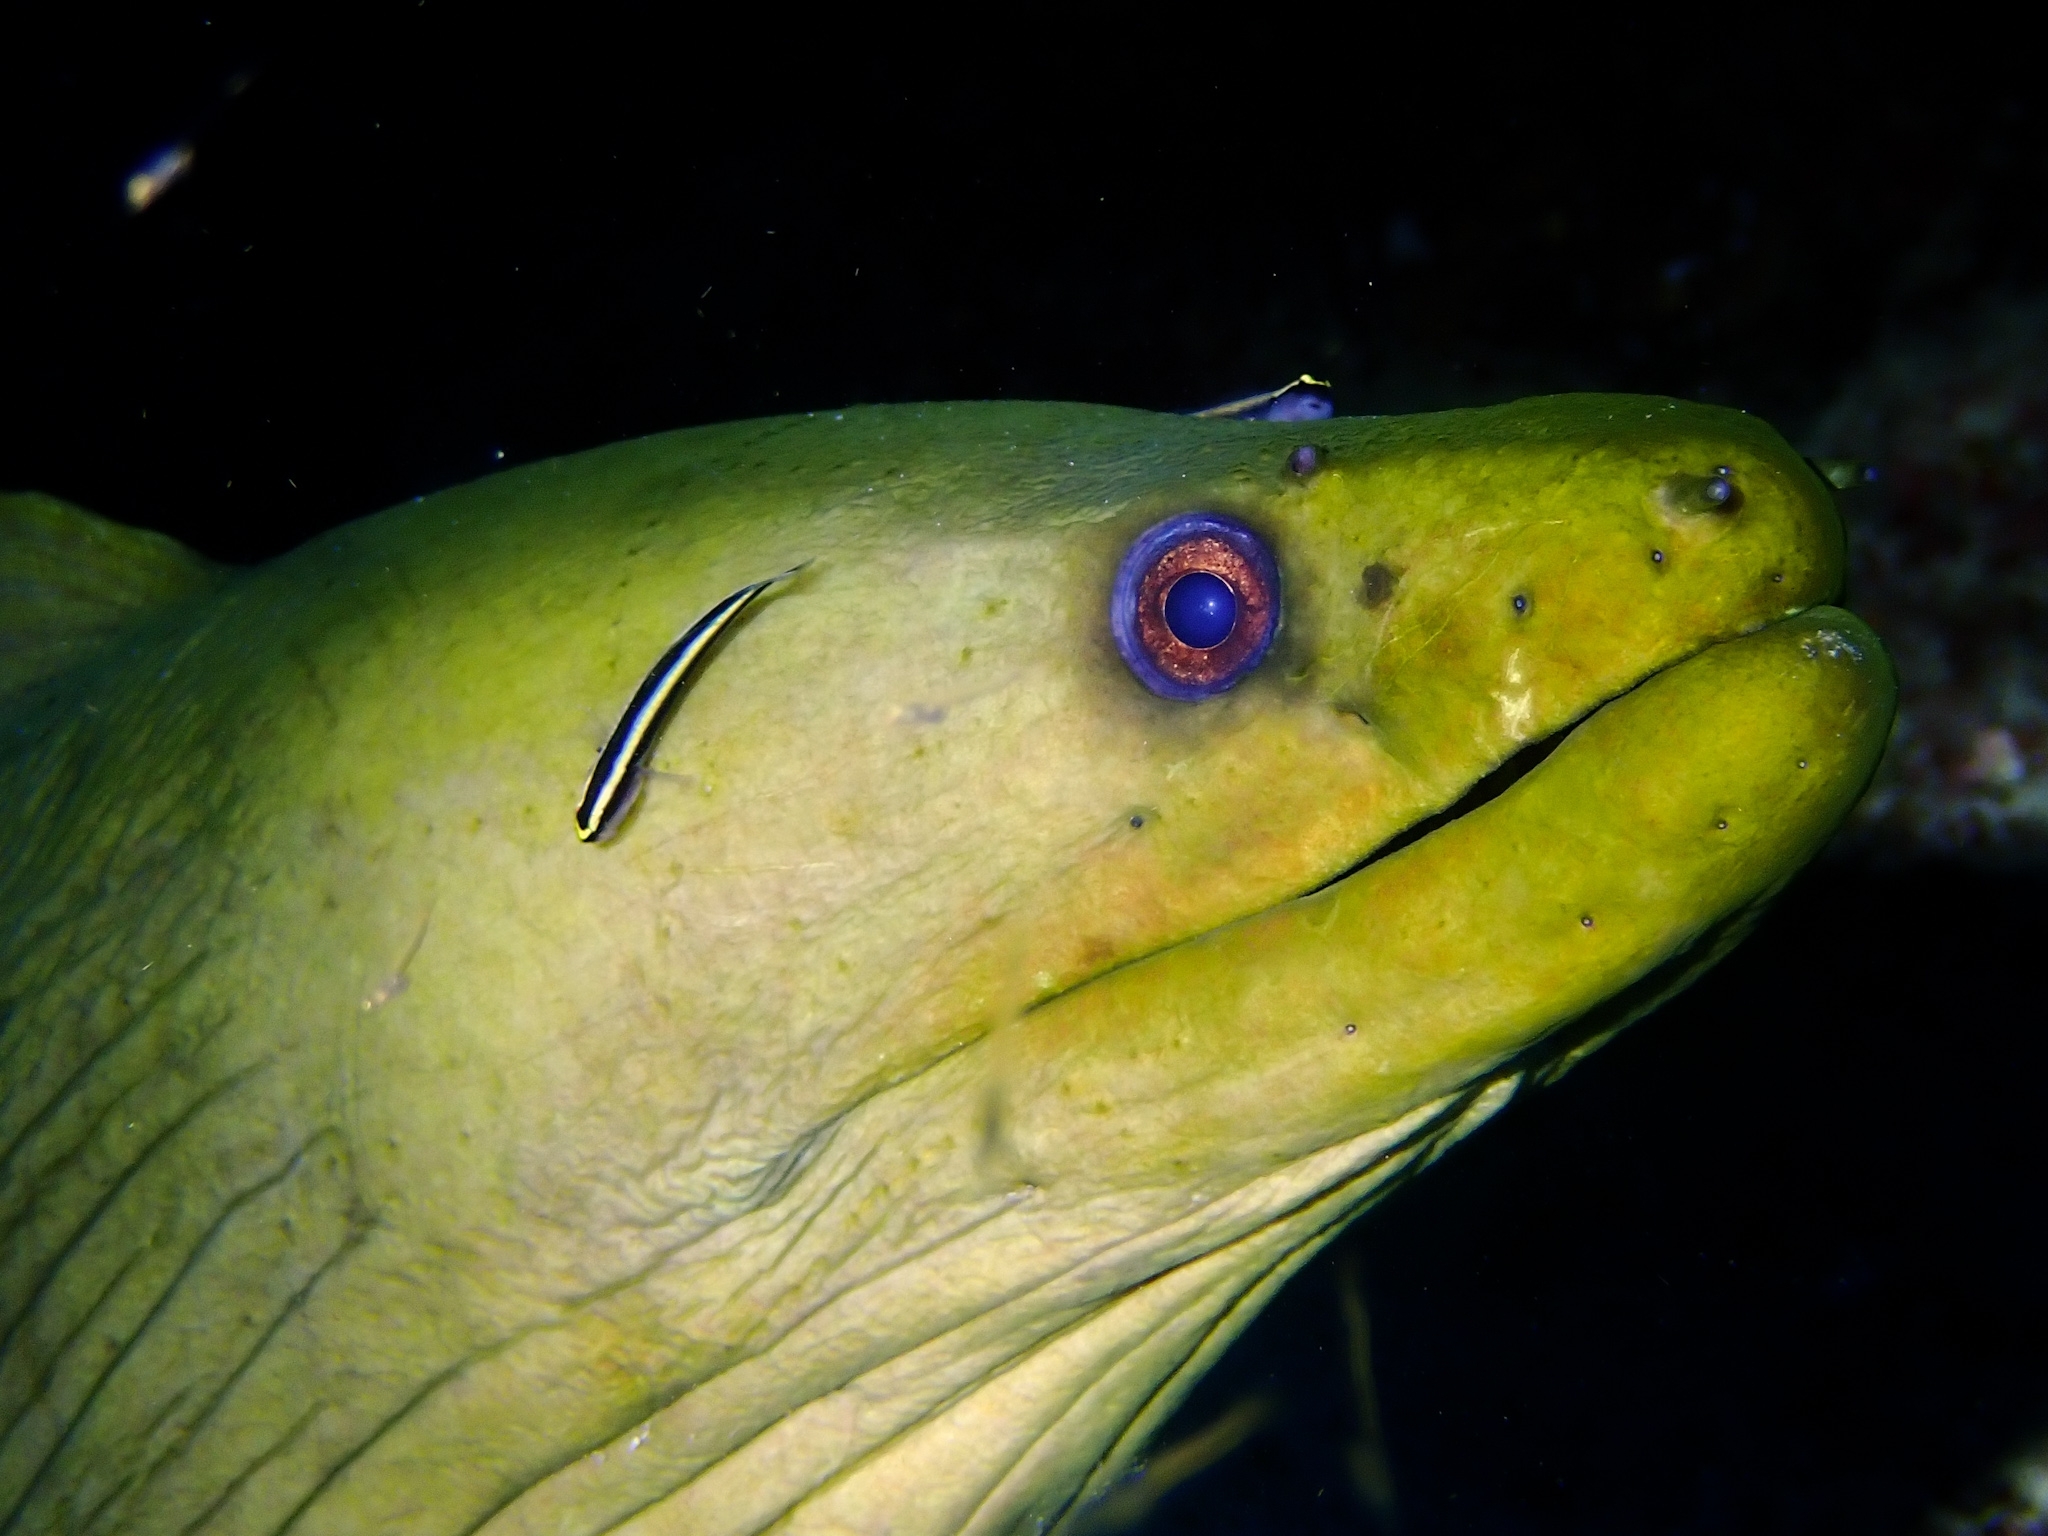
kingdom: Animalia
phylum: Chordata
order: Anguilliformes
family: Muraenidae
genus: Gymnothorax
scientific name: Gymnothorax funebris
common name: Green moray
